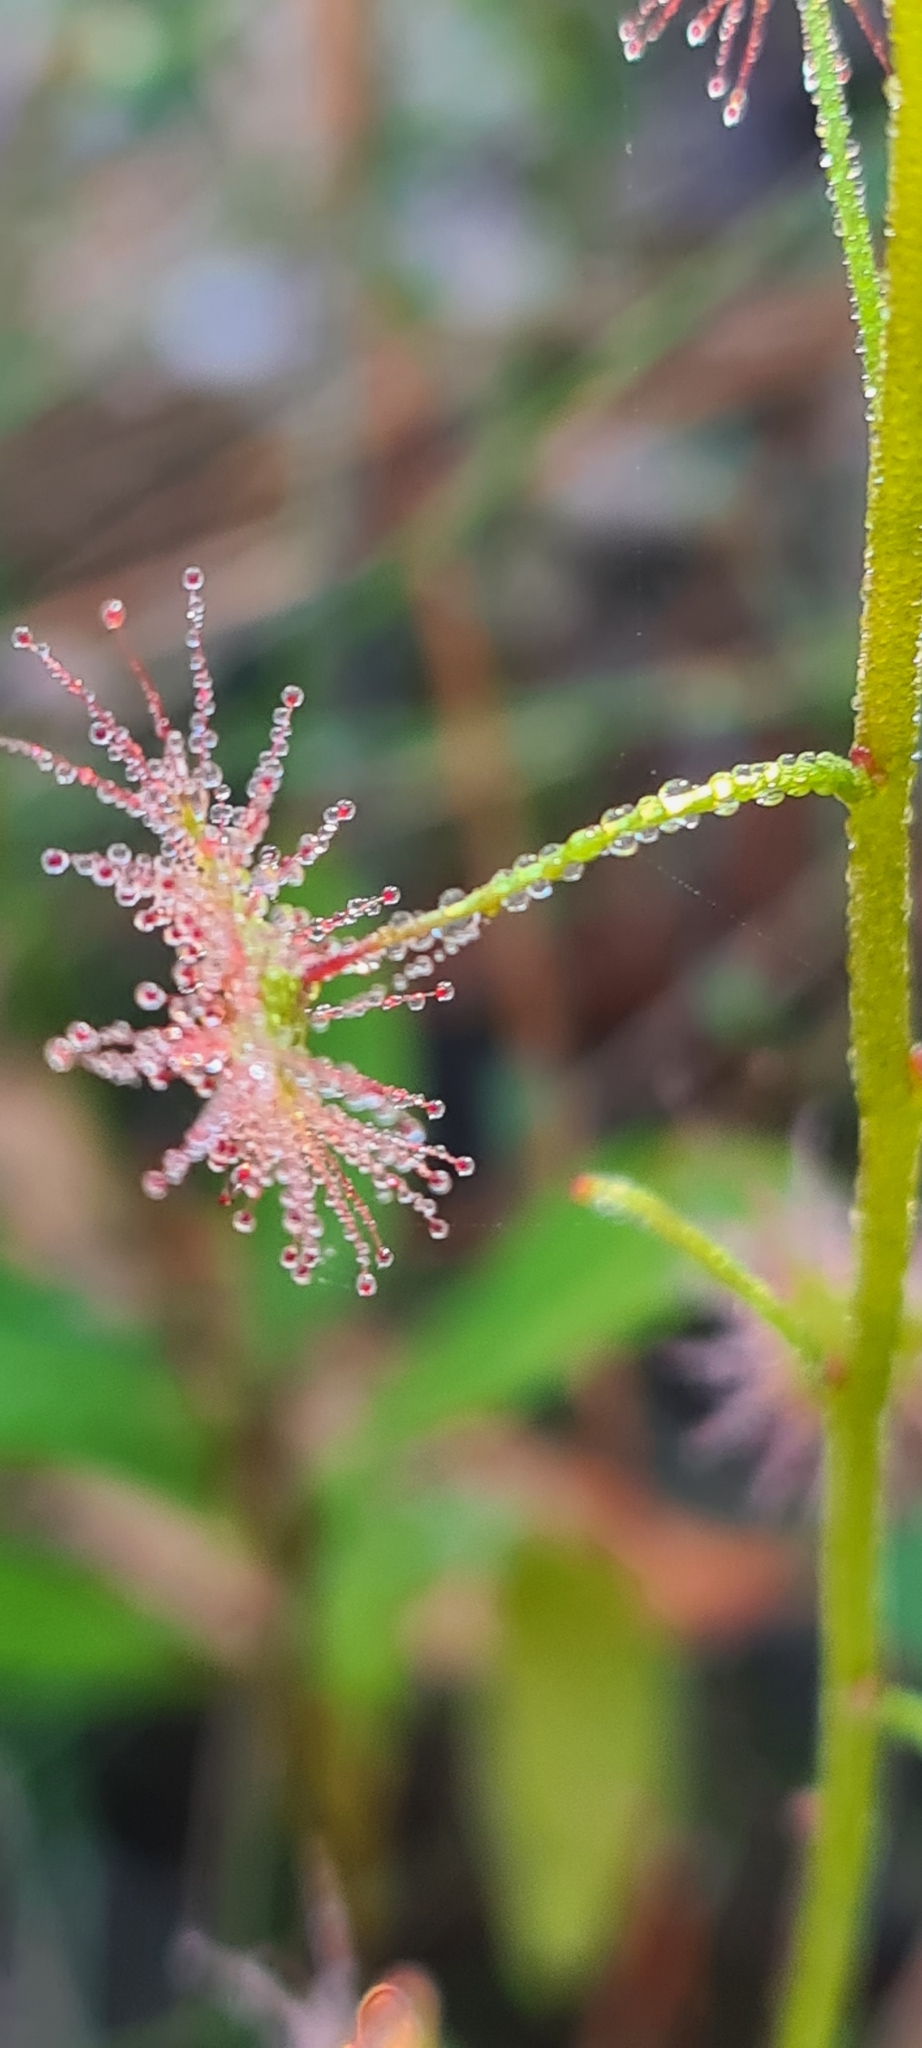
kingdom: Plantae
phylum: Tracheophyta
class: Magnoliopsida
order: Caryophyllales
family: Droseraceae
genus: Drosera
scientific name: Drosera peltata
